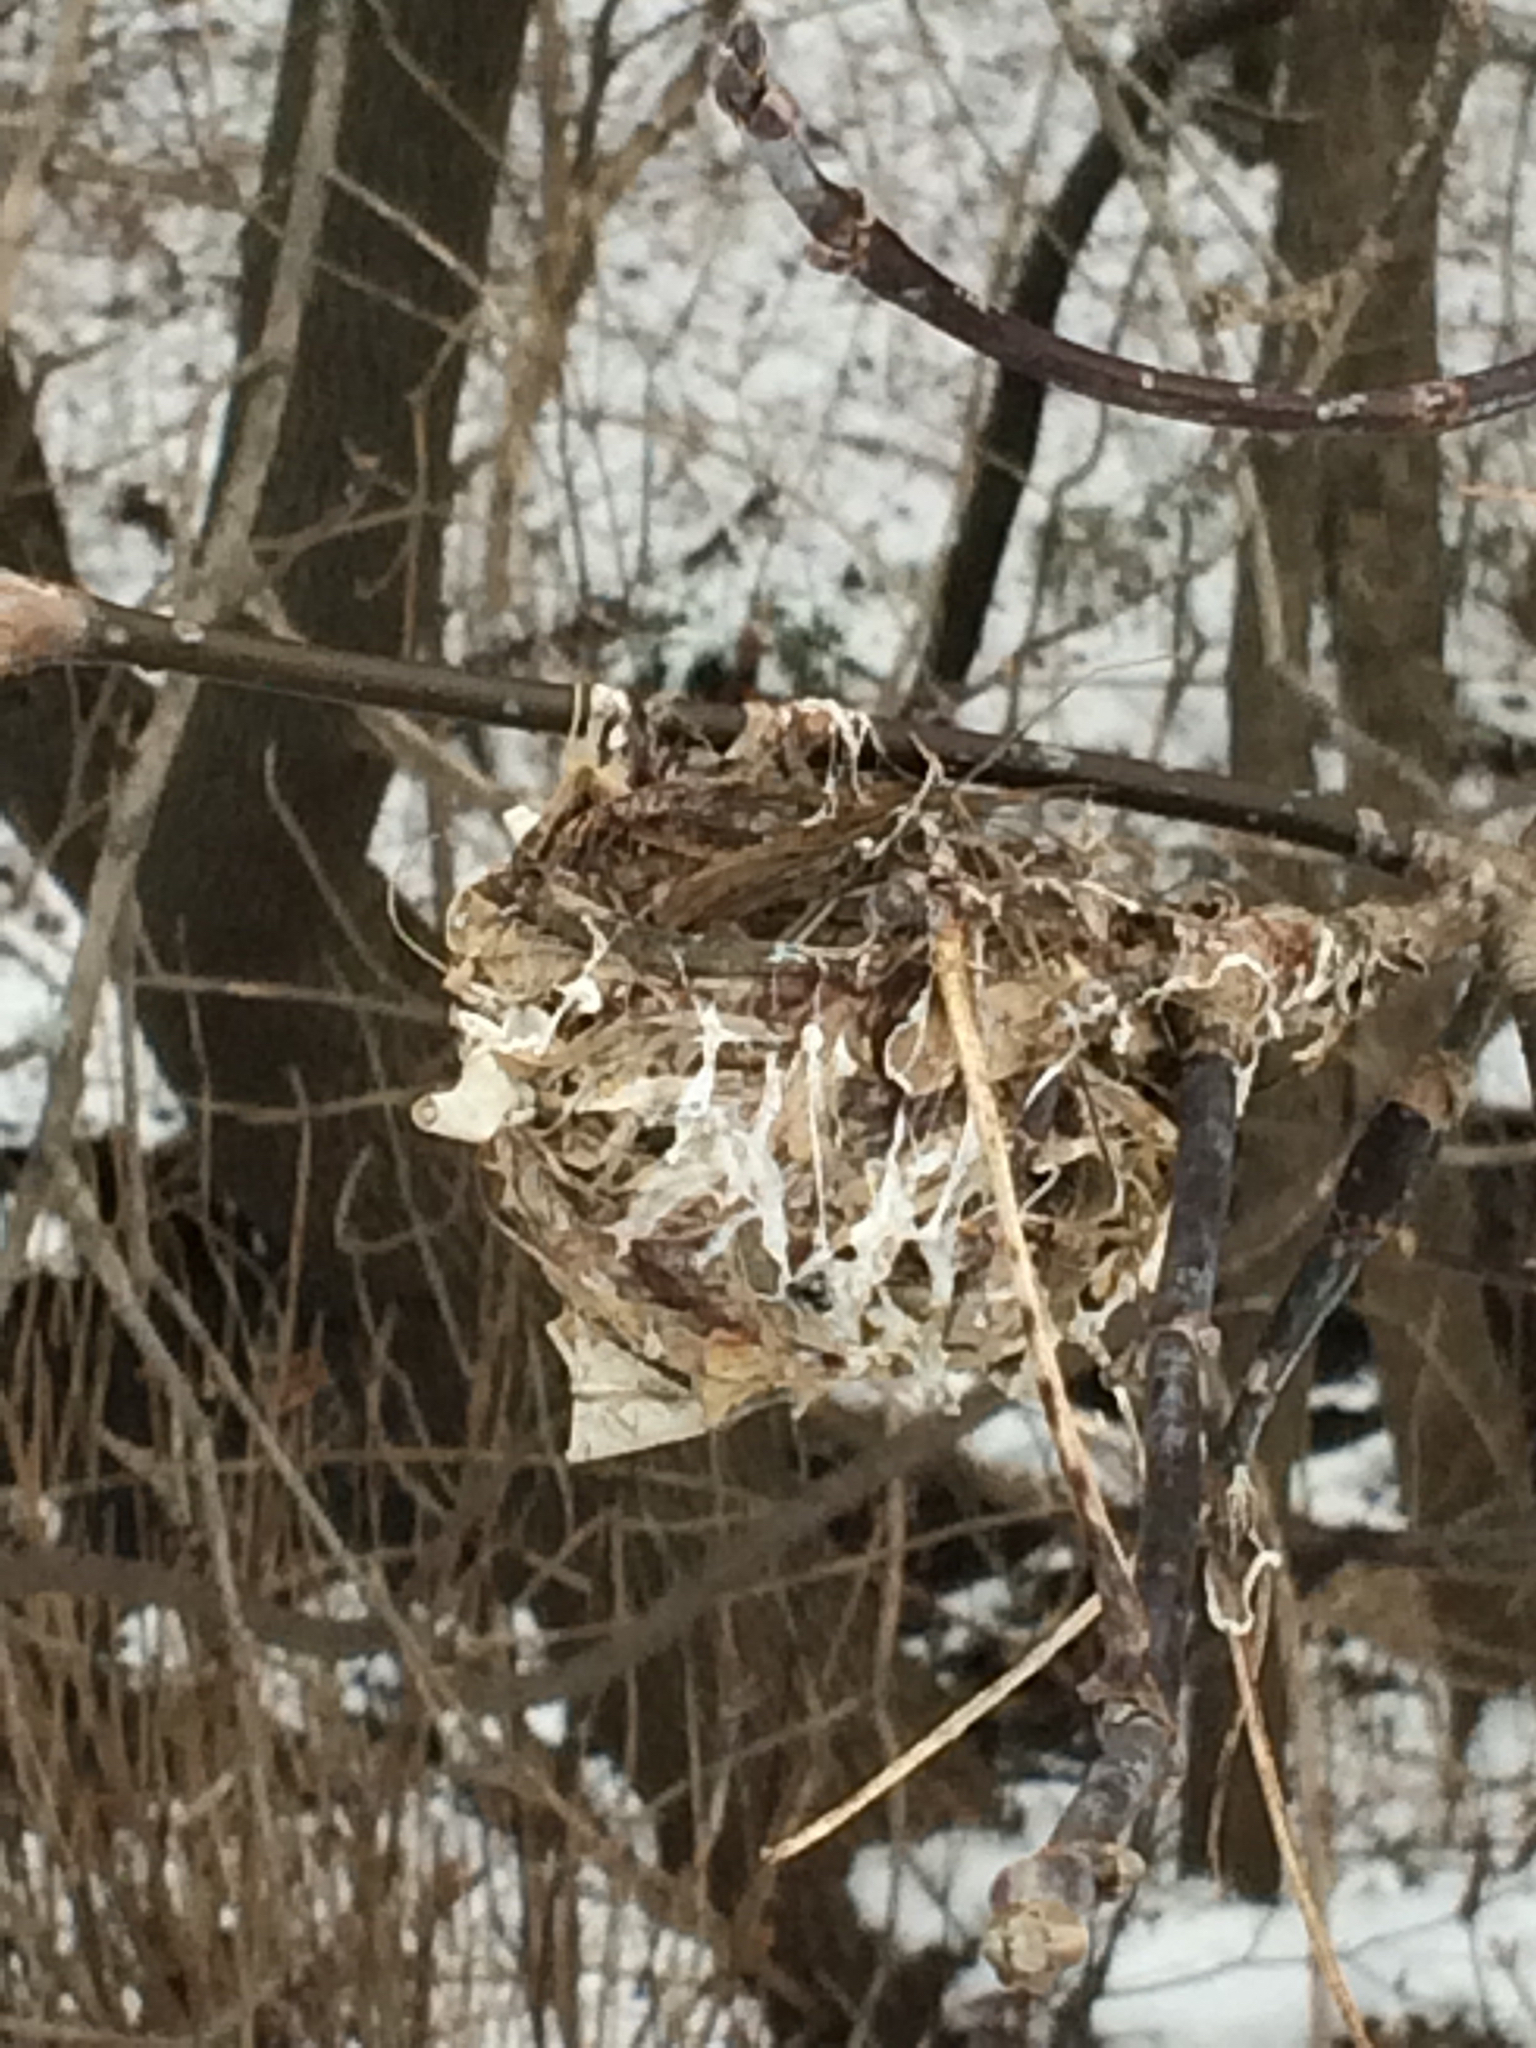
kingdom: Animalia
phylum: Chordata
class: Aves
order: Passeriformes
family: Vireonidae
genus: Vireo
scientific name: Vireo
